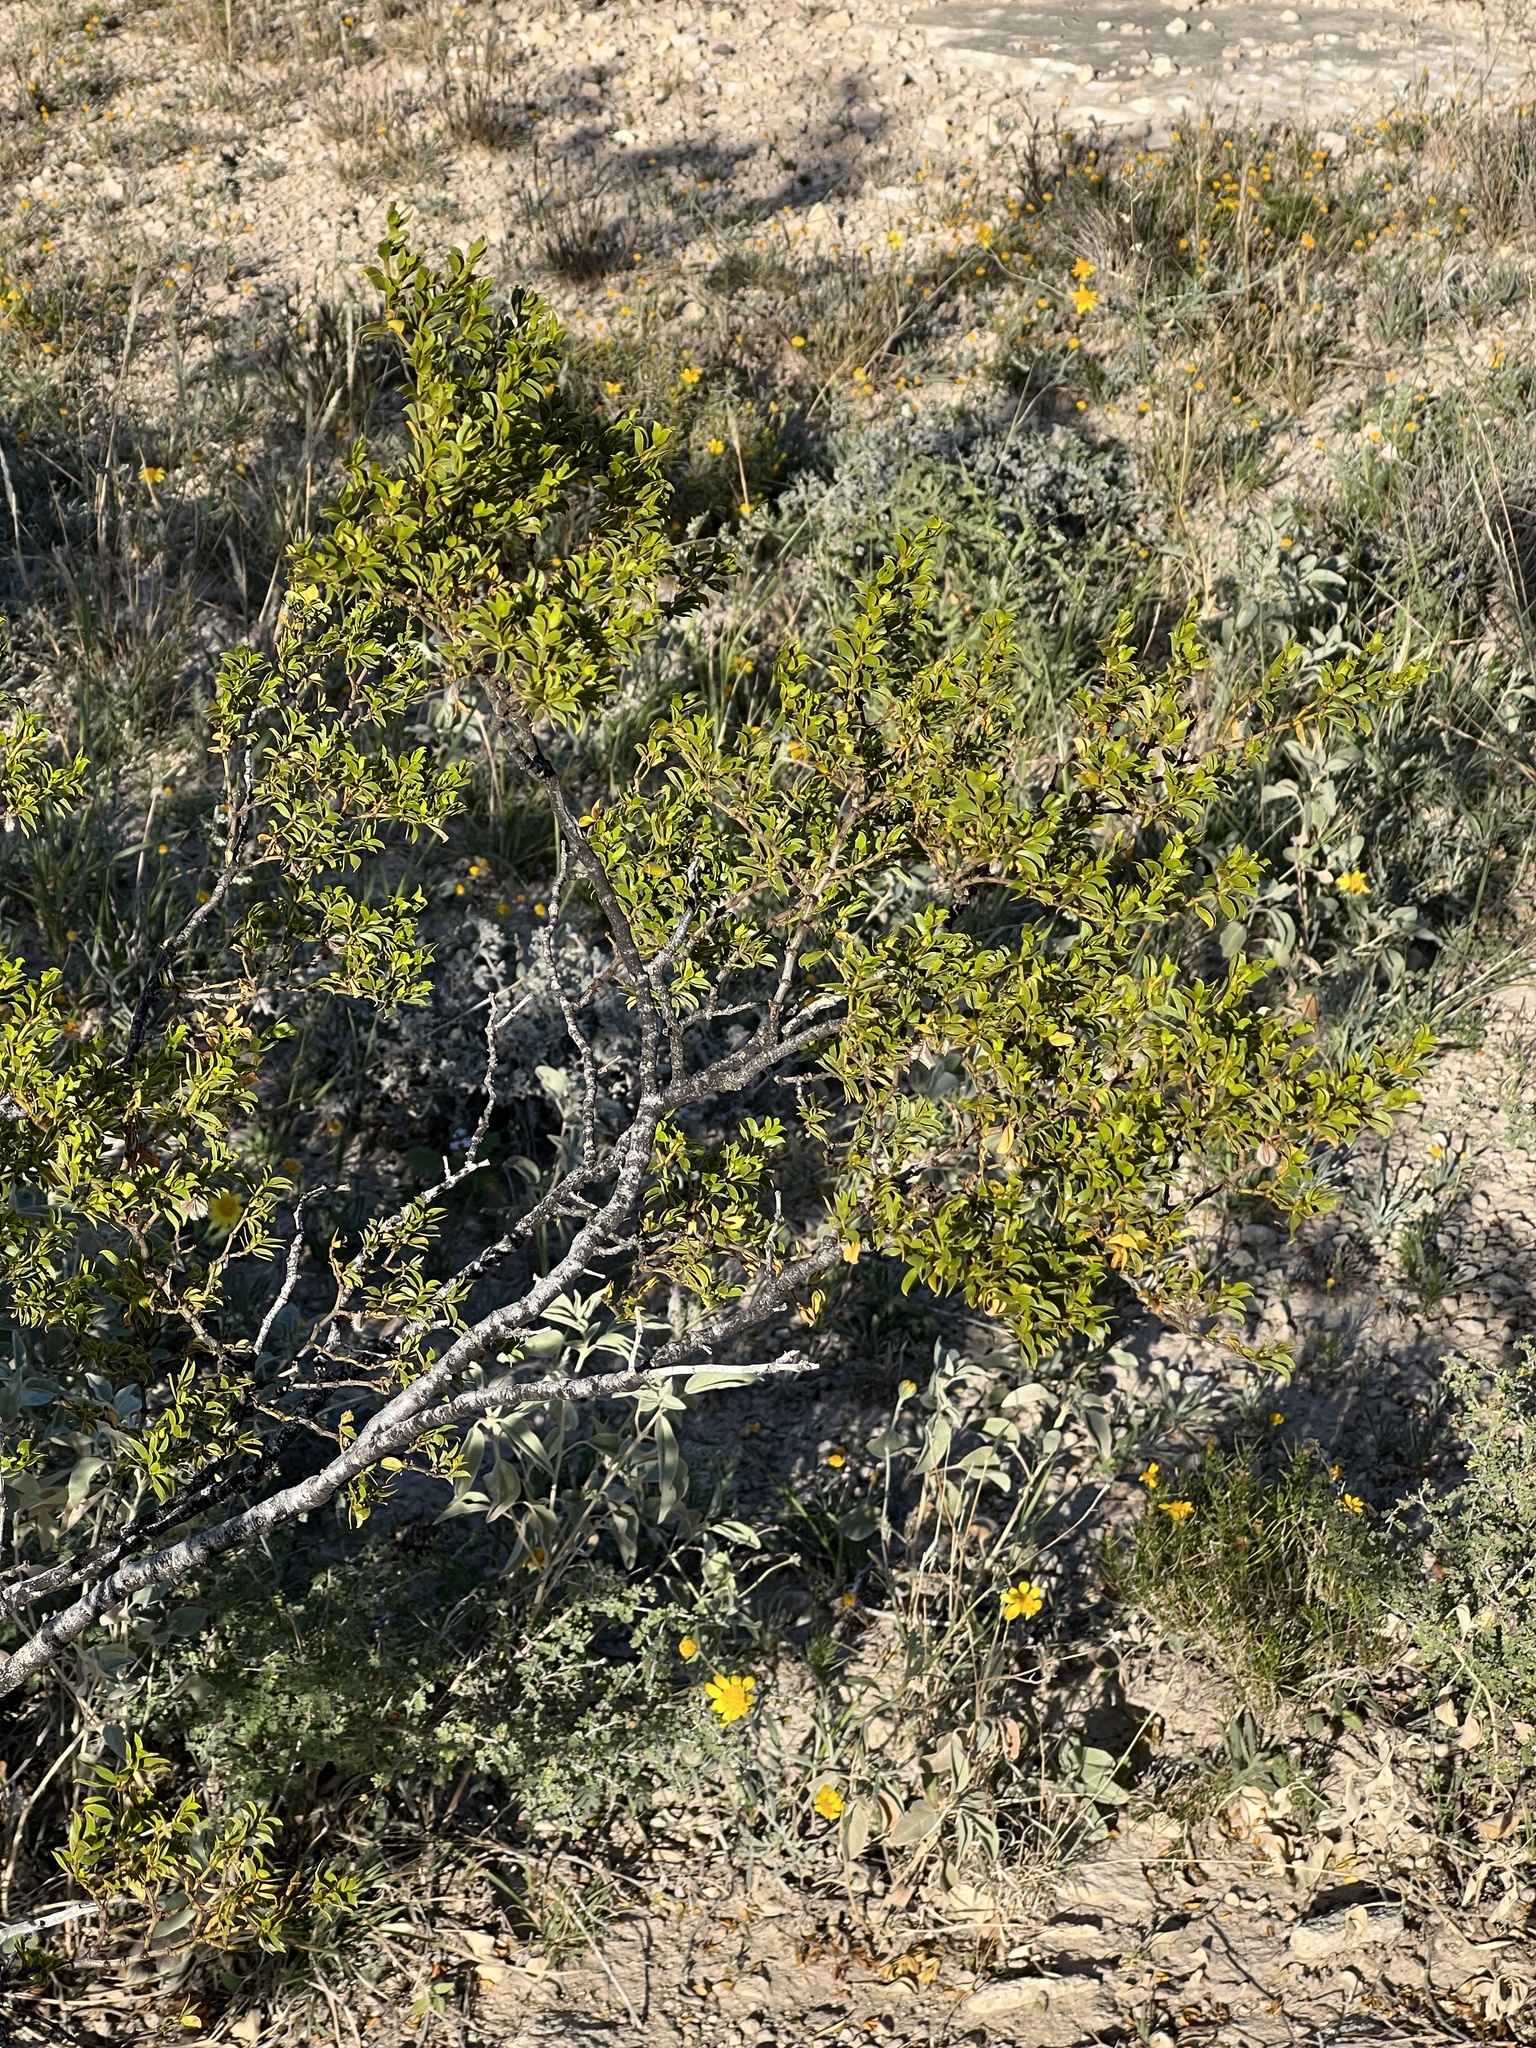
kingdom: Plantae
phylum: Tracheophyta
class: Magnoliopsida
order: Zygophyllales
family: Zygophyllaceae
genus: Larrea
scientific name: Larrea tridentata
